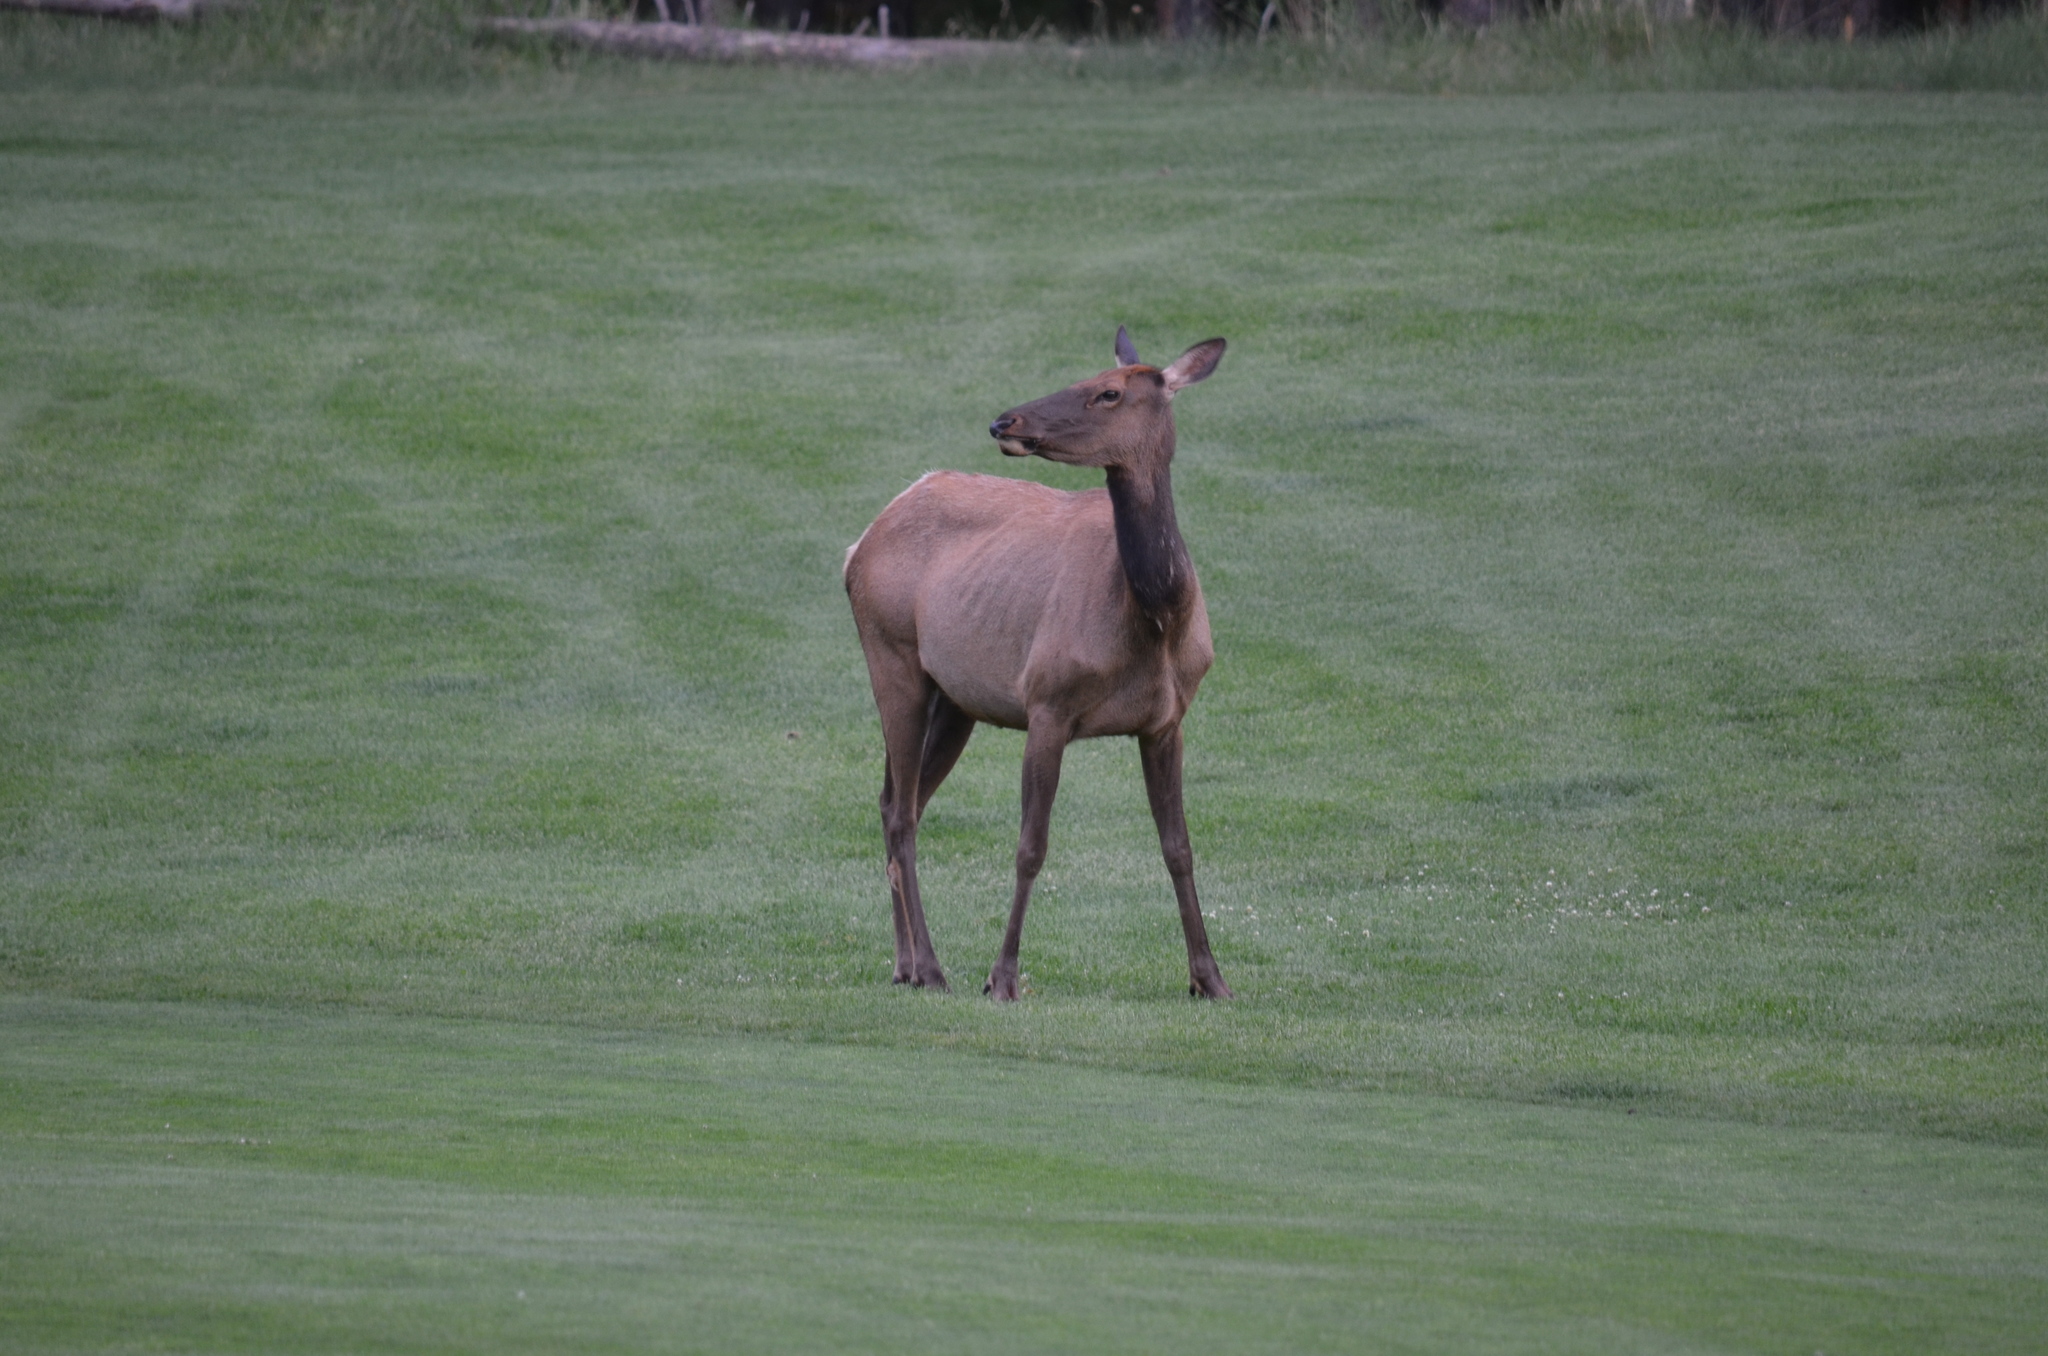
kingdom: Animalia
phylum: Chordata
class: Mammalia
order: Artiodactyla
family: Cervidae
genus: Cervus
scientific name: Cervus elaphus
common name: Red deer
